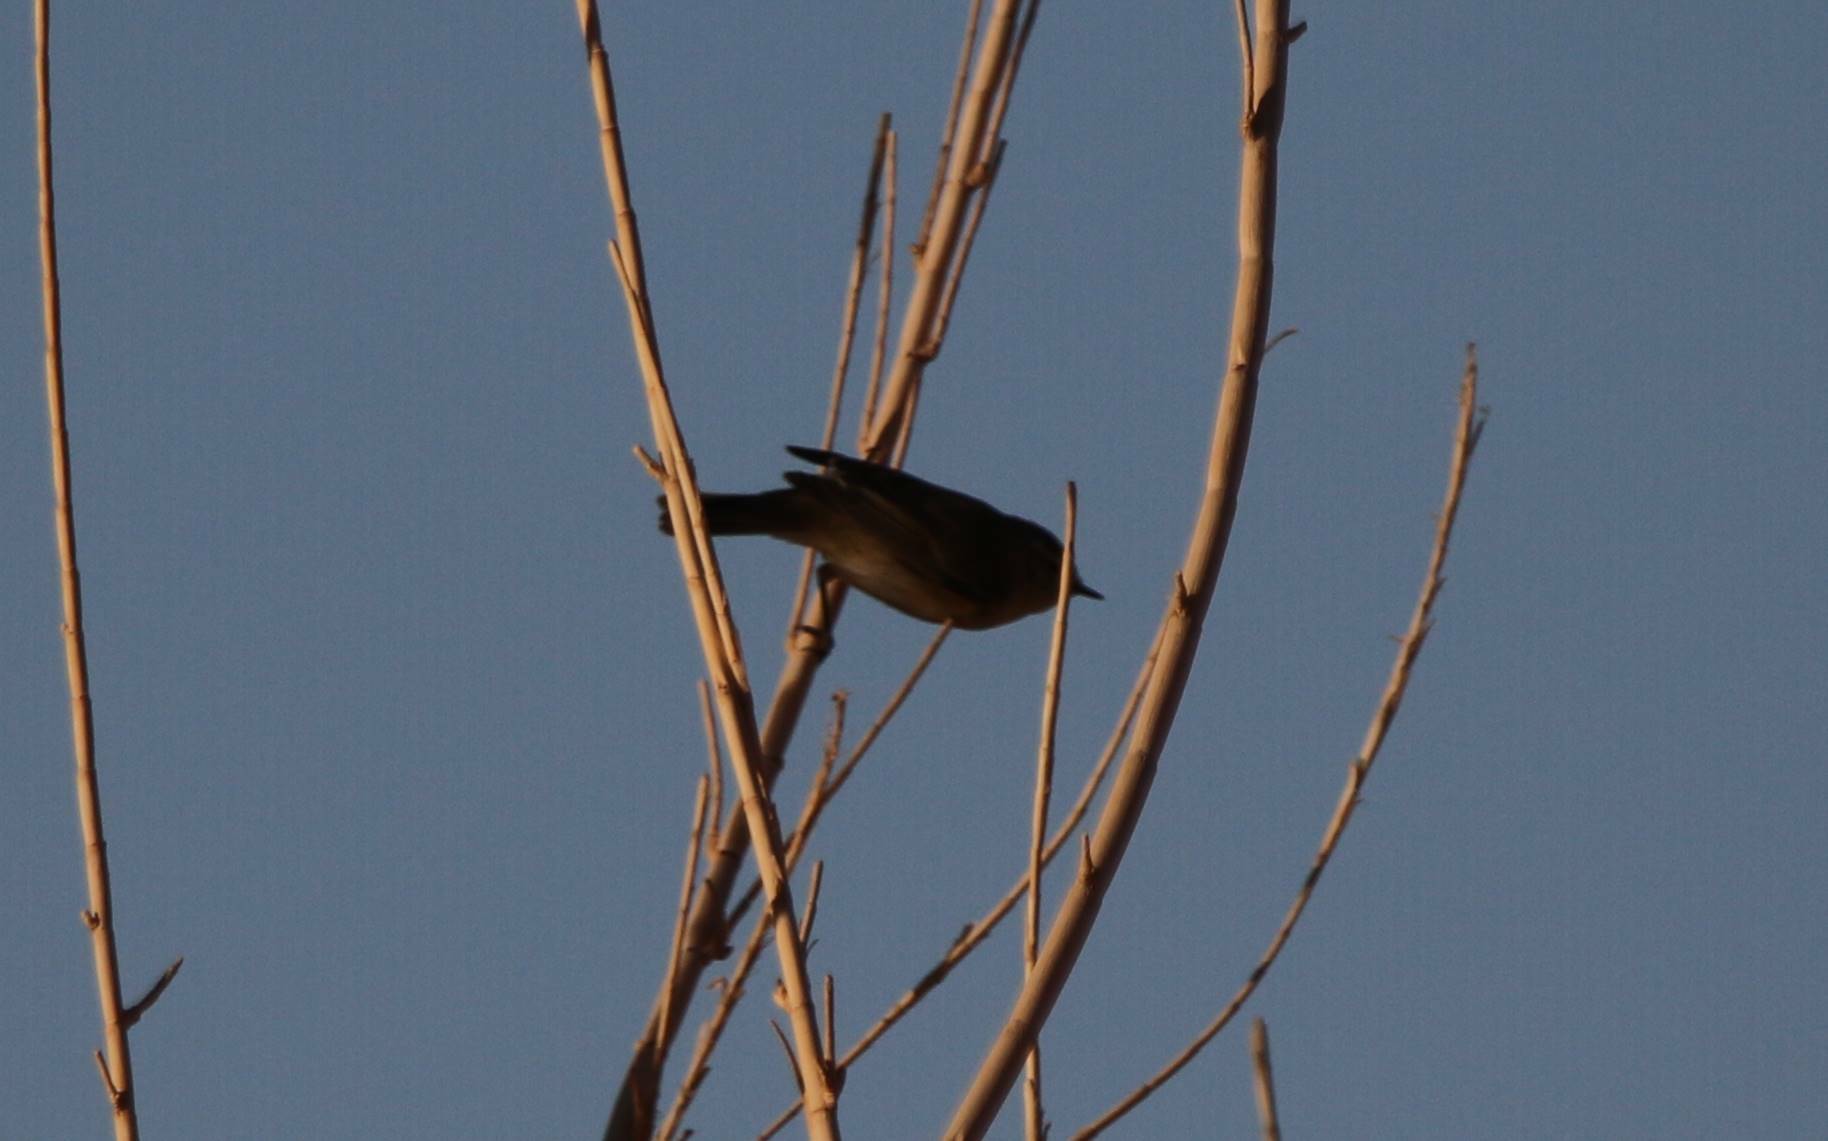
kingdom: Animalia
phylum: Chordata
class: Aves
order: Passeriformes
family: Phylloscopidae
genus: Phylloscopus
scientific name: Phylloscopus collybita
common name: Common chiffchaff
